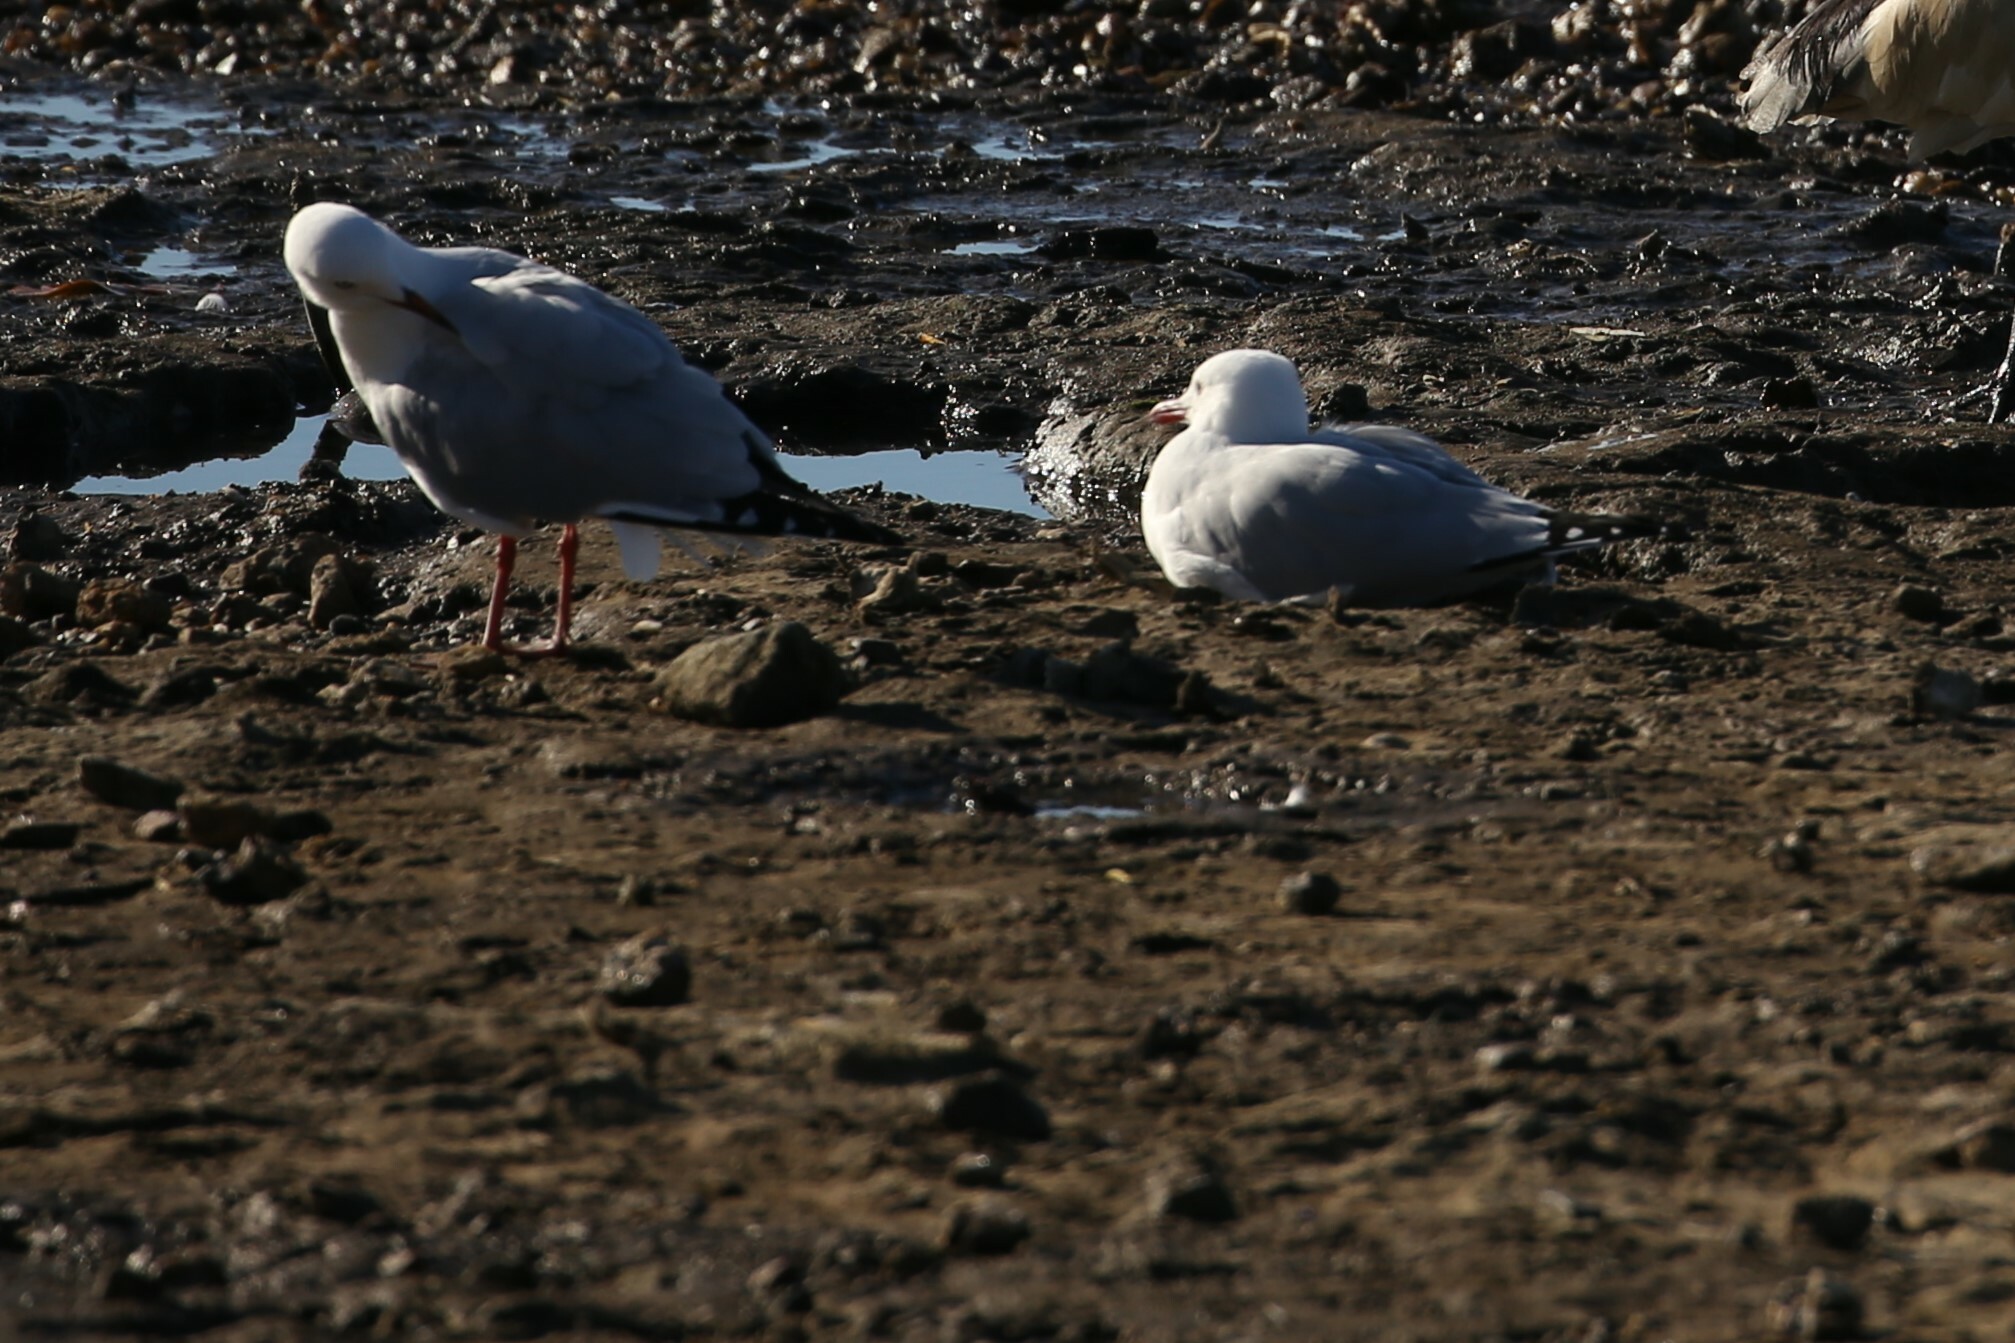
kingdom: Animalia
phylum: Chordata
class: Aves
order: Charadriiformes
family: Laridae
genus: Chroicocephalus
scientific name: Chroicocephalus novaehollandiae
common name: Silver gull
